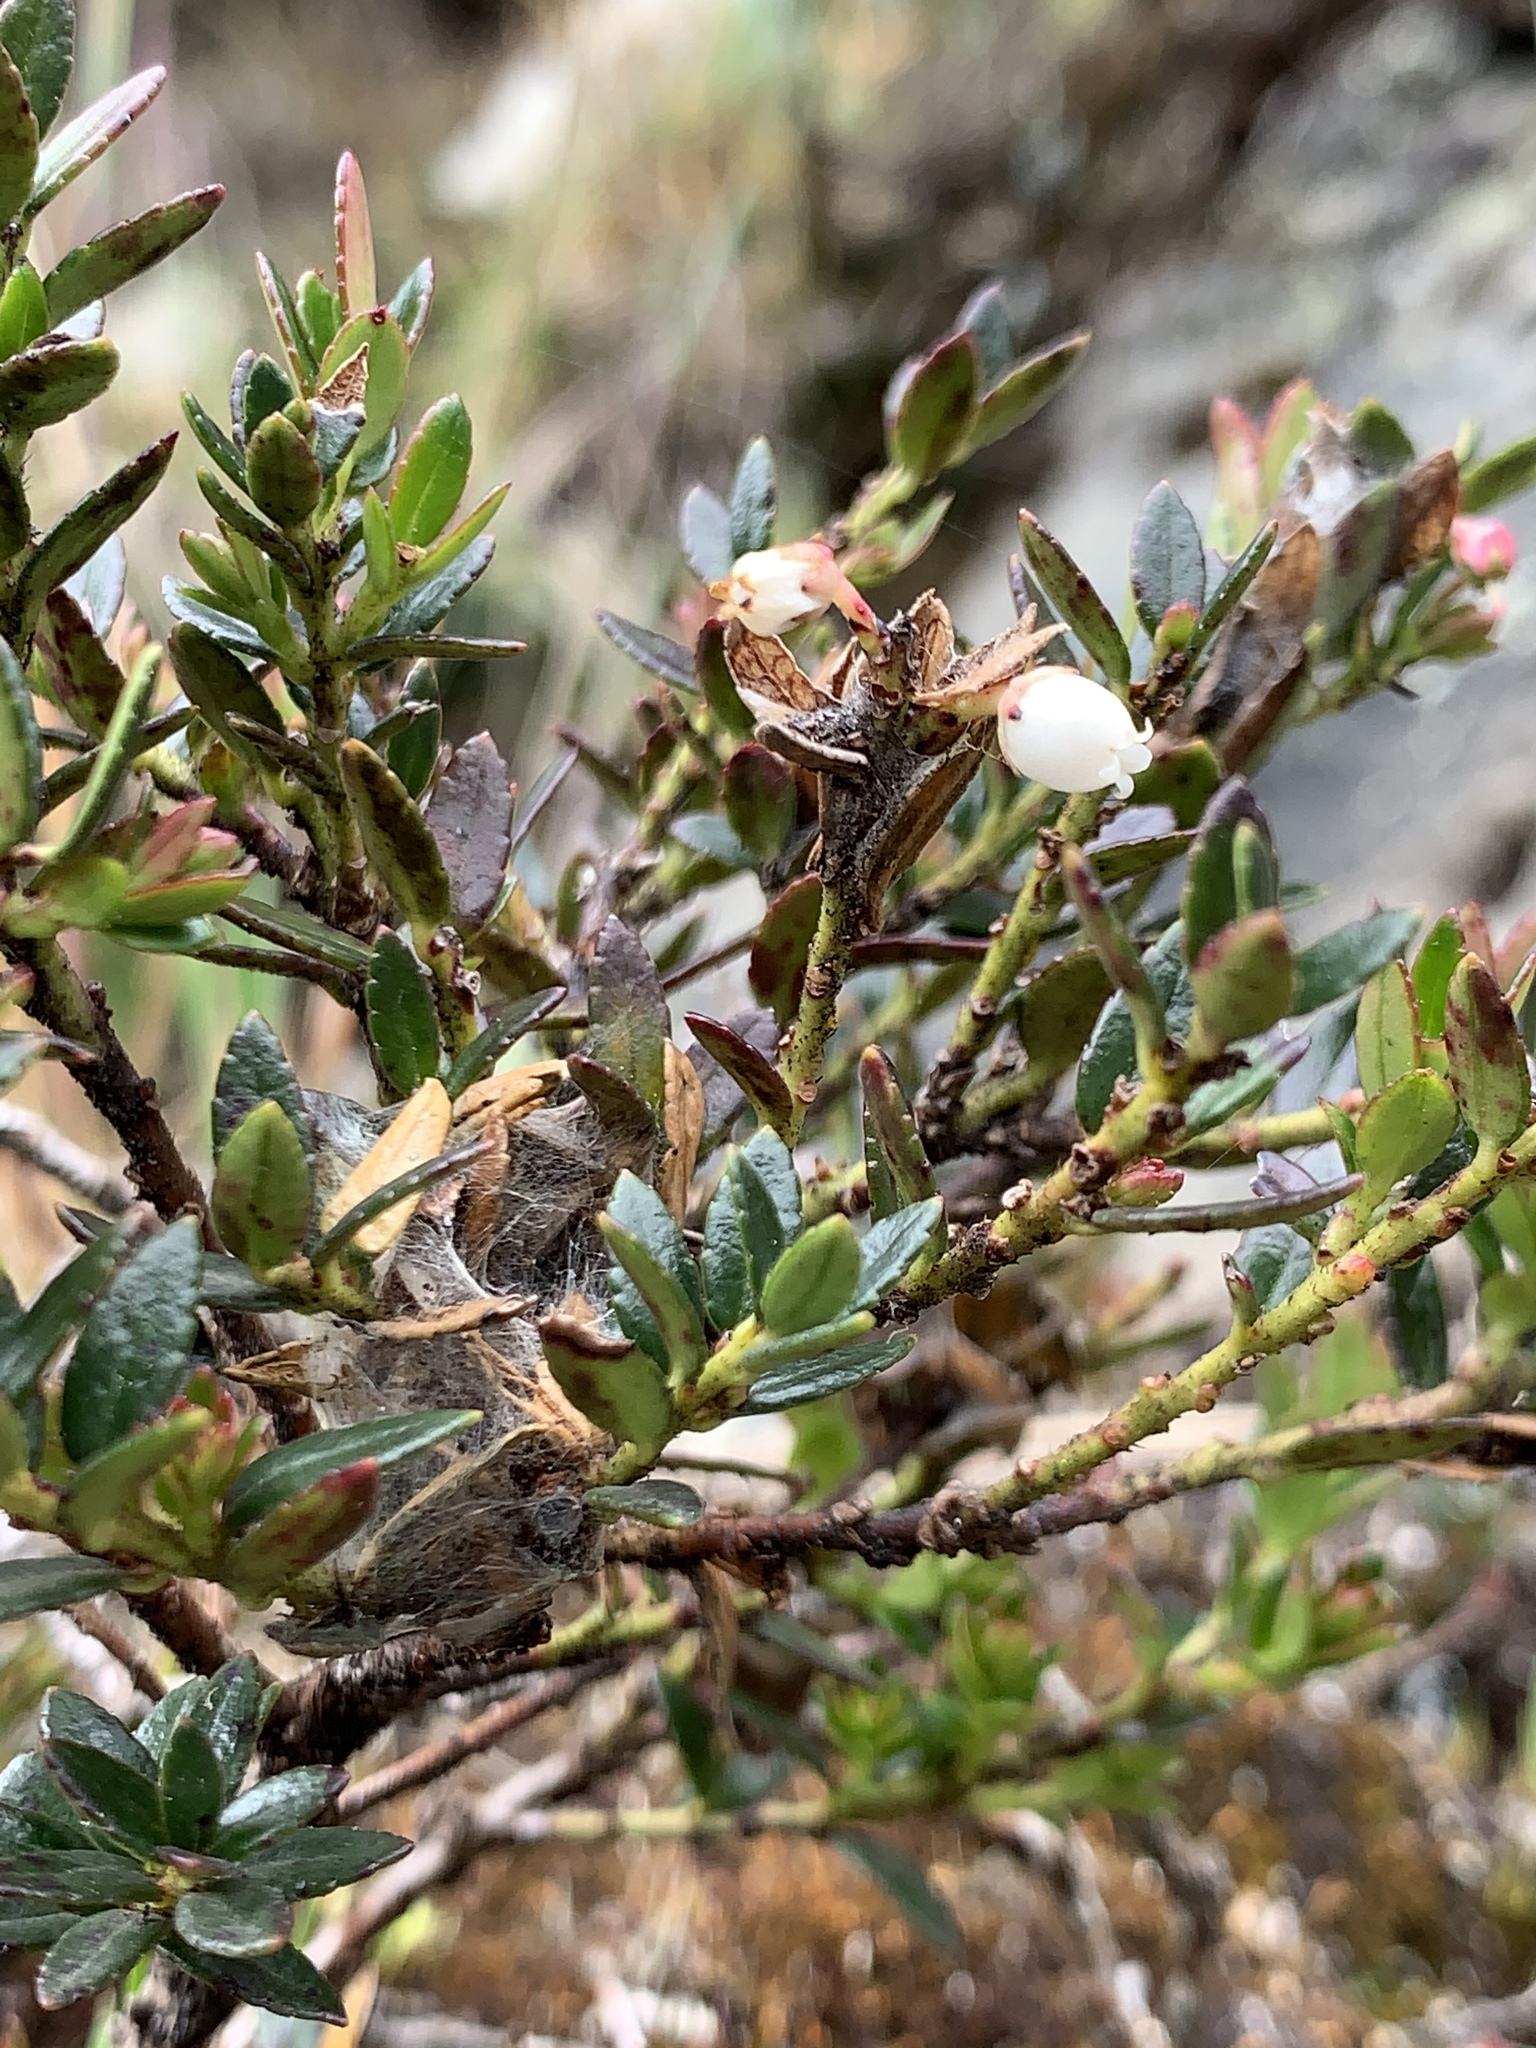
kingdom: Plantae
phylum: Tracheophyta
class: Magnoliopsida
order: Ericales
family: Ericaceae
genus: Gaultheria
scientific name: Gaultheria myrsinoides
